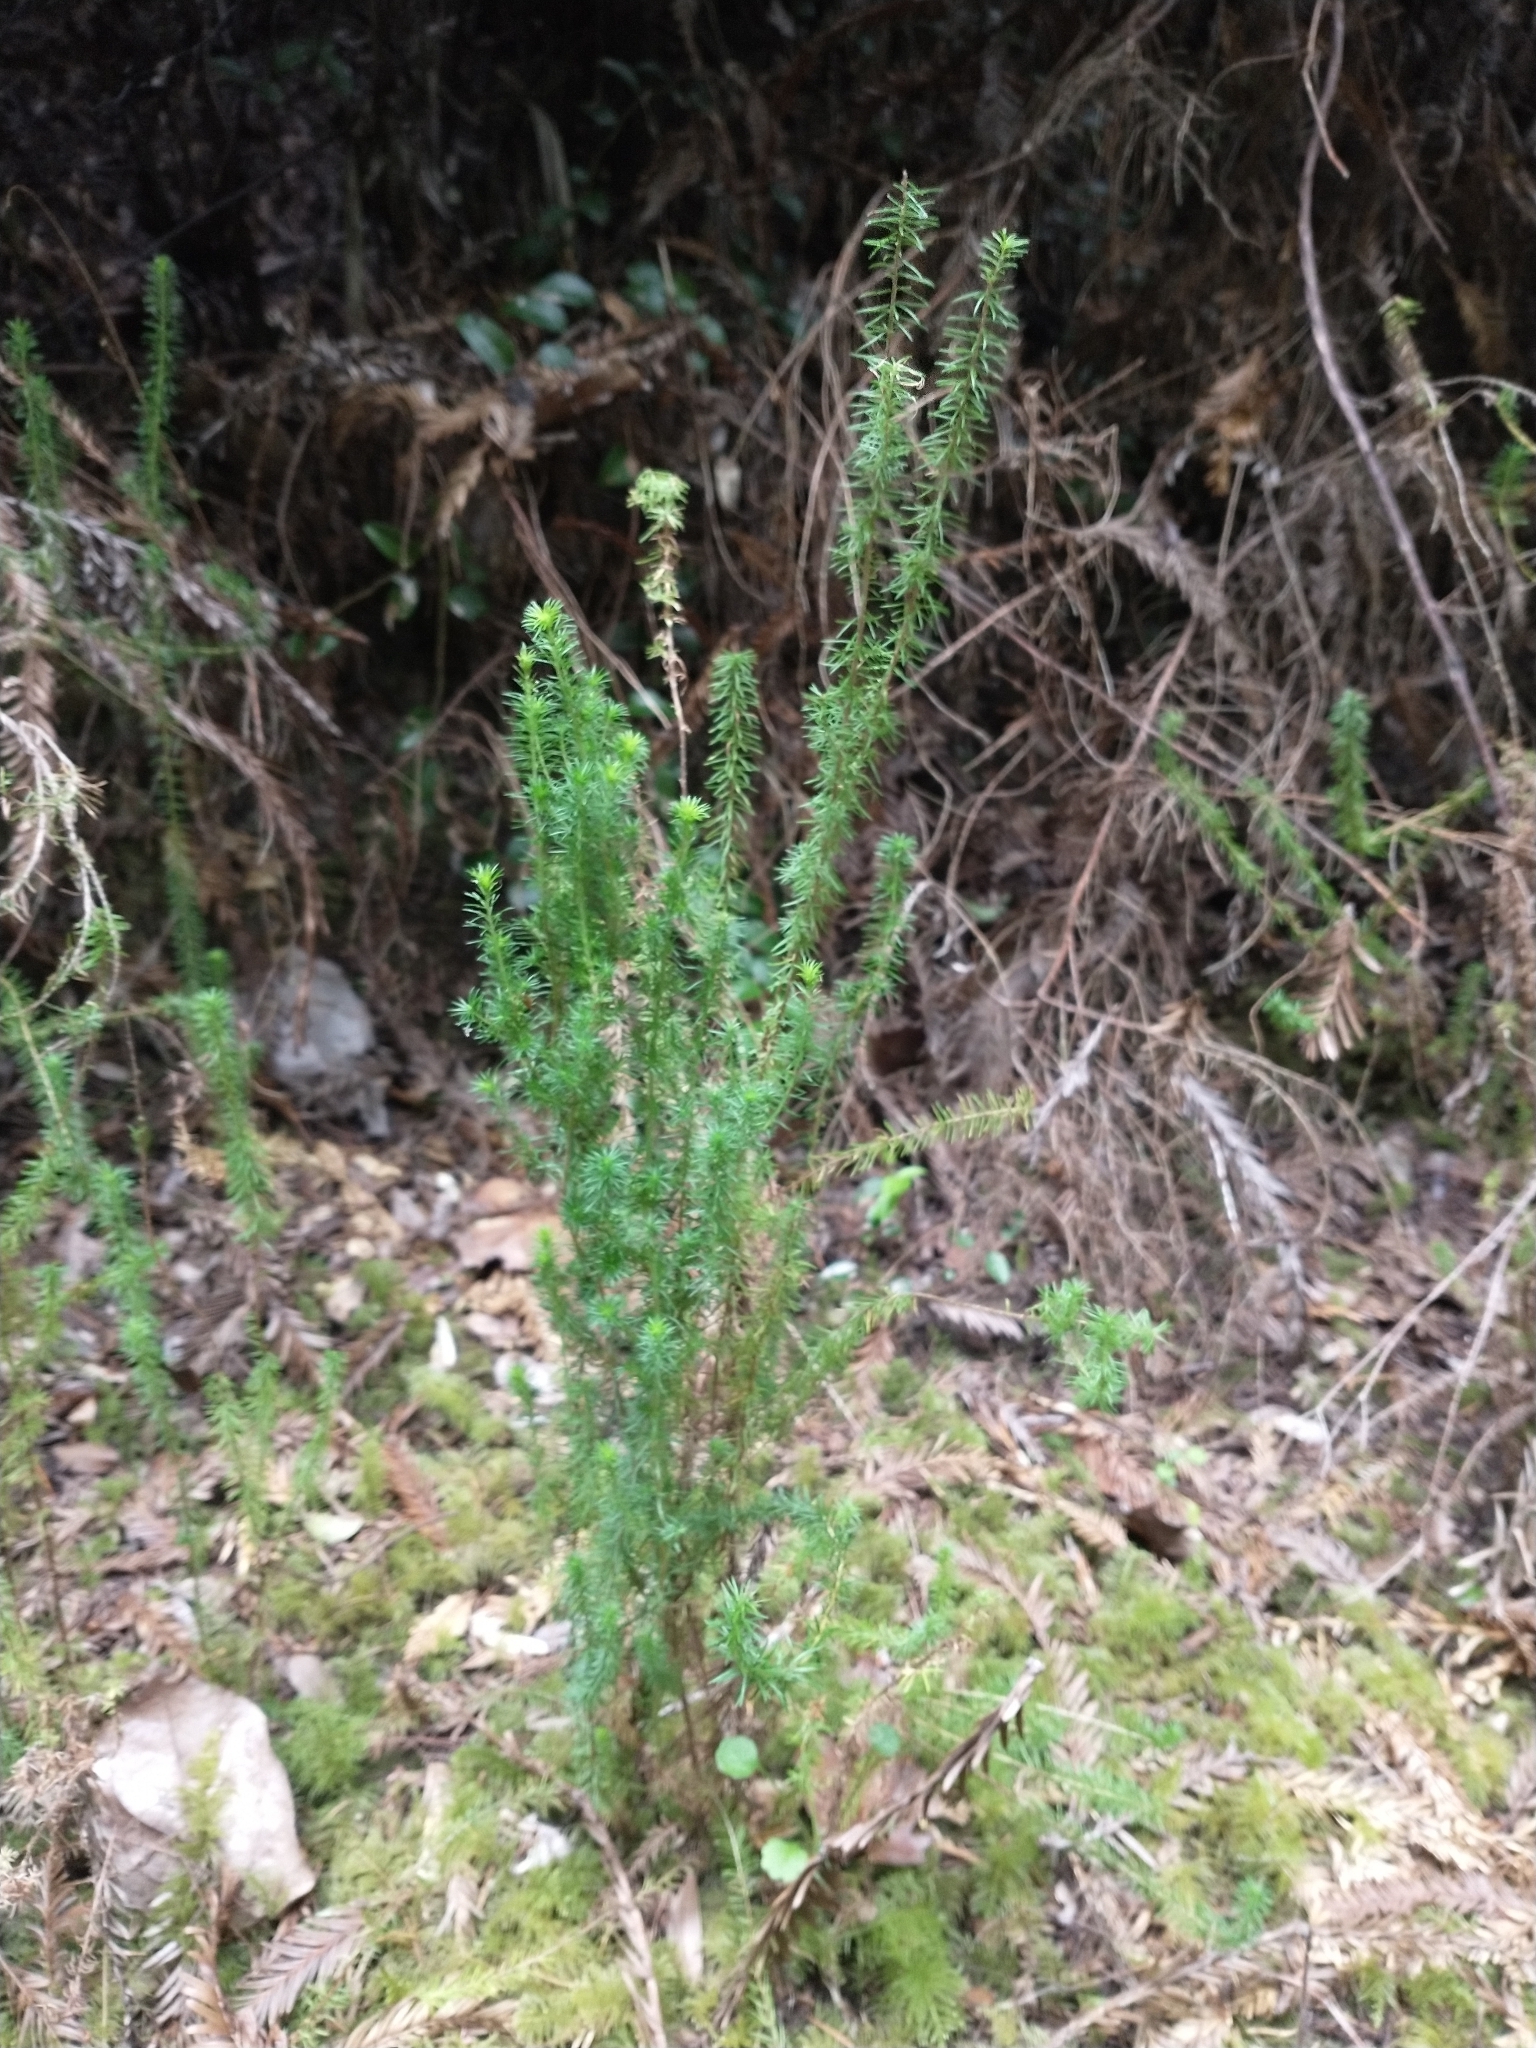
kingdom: Plantae
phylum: Tracheophyta
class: Magnoliopsida
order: Ericales
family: Ericaceae
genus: Erica
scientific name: Erica lusitanica
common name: Spanish heath
